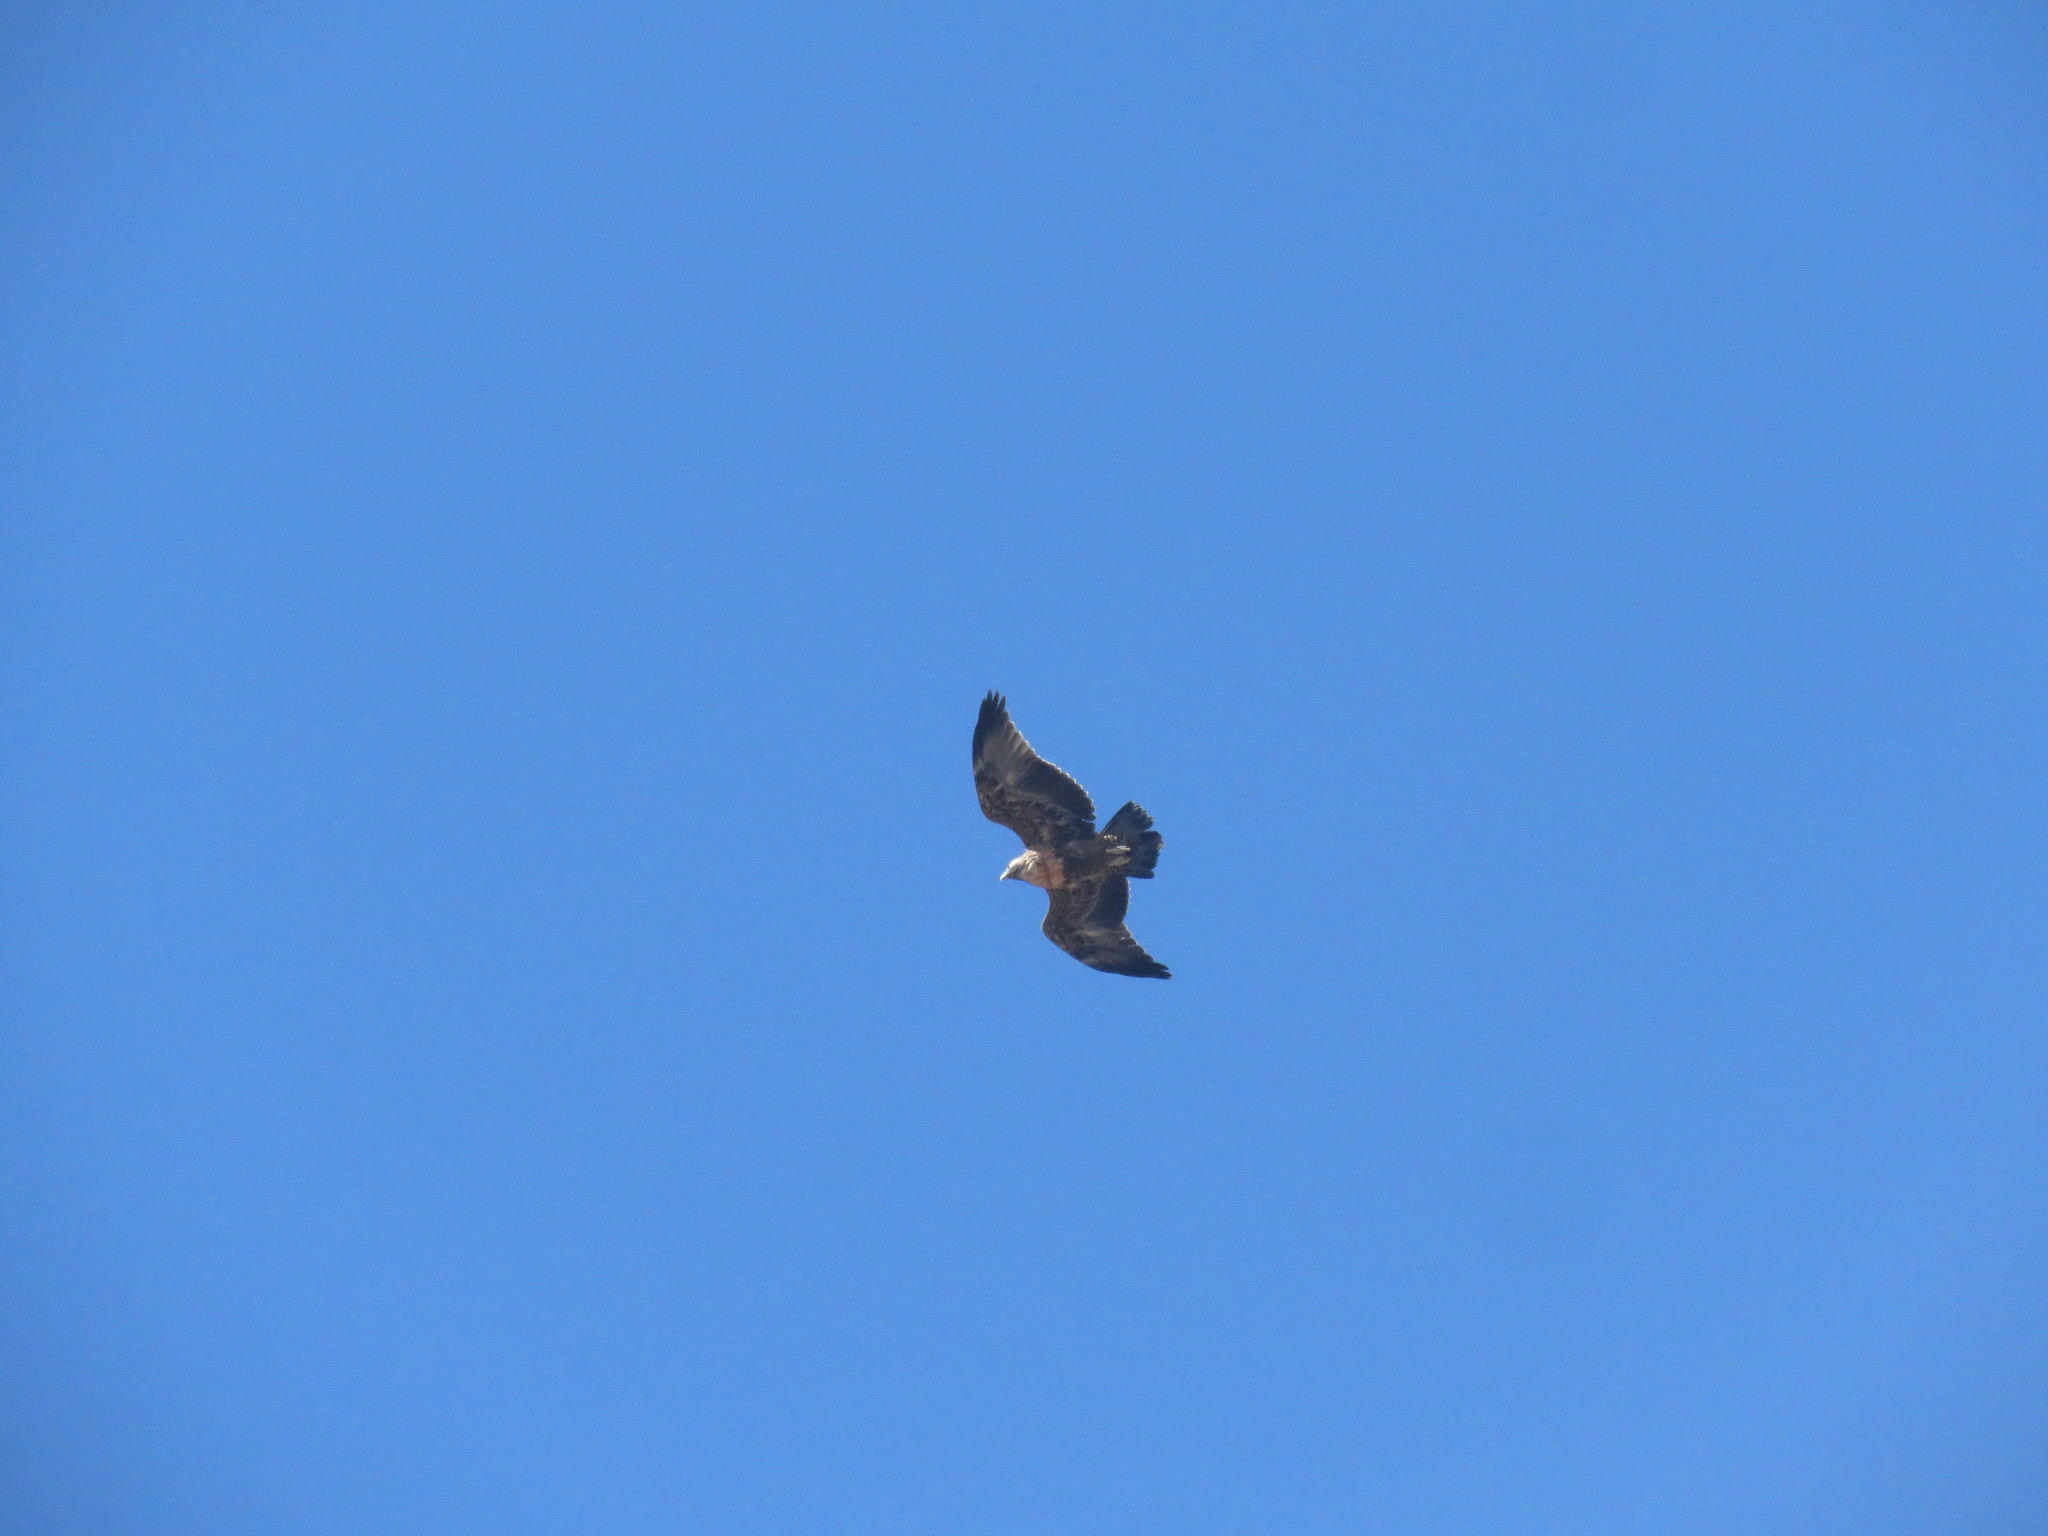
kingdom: Animalia
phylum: Chordata
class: Aves
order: Accipitriformes
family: Accipitridae
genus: Geranoaetus
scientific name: Geranoaetus melanoleucus
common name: Black-chested buzzard-eagle
